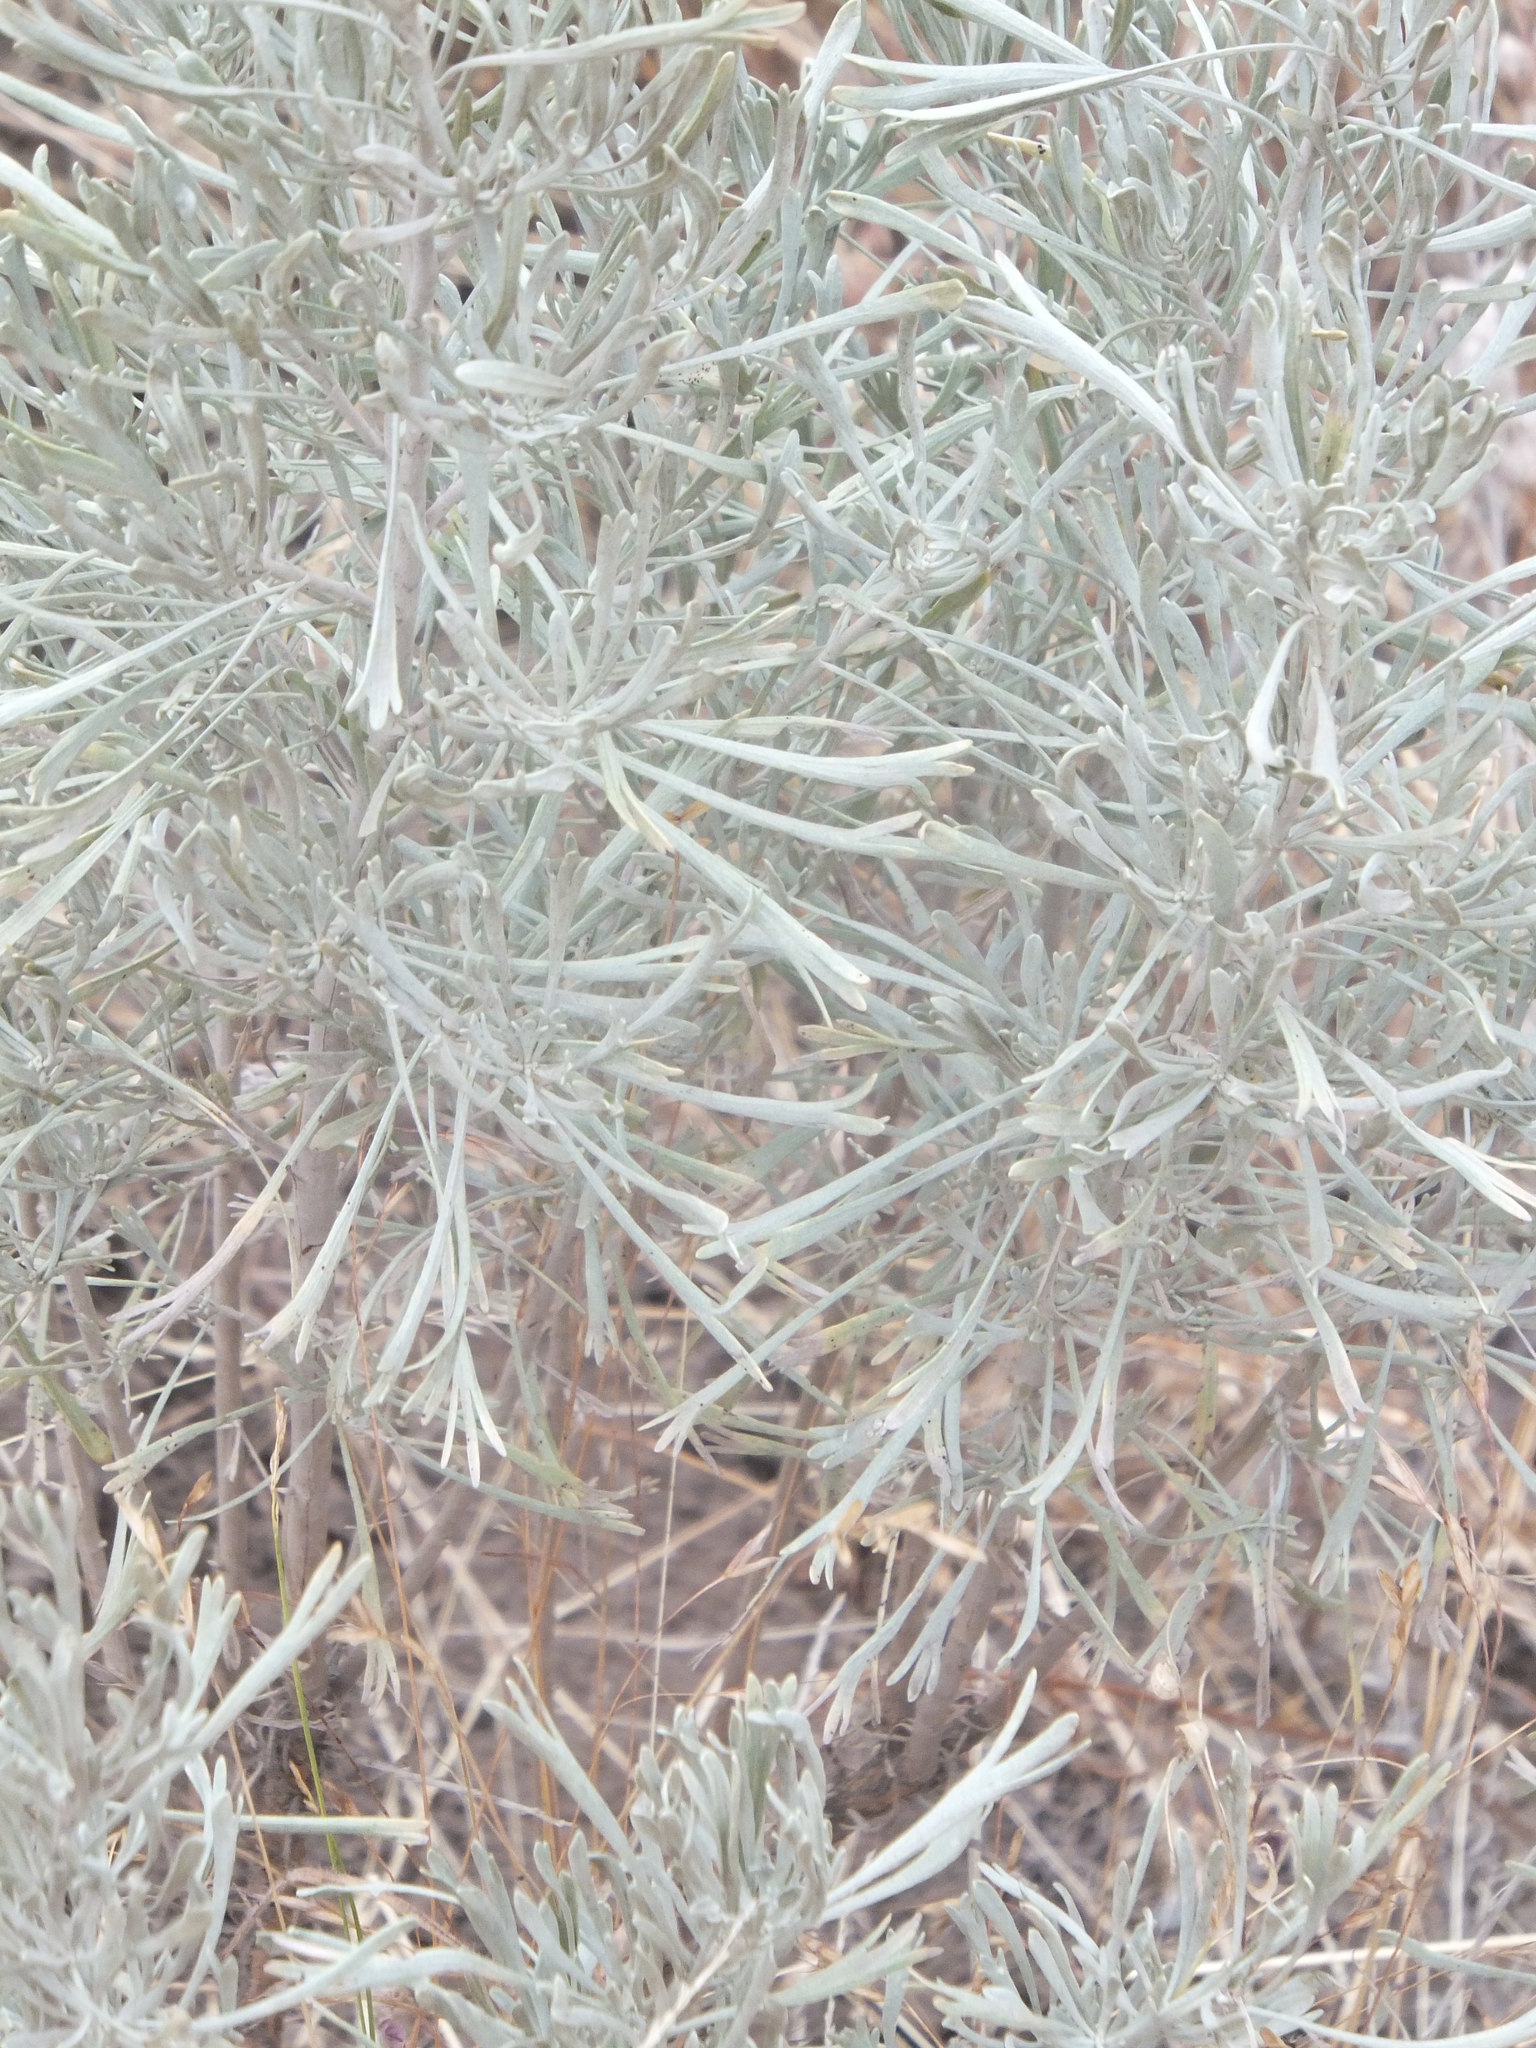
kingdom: Plantae
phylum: Tracheophyta
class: Magnoliopsida
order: Asterales
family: Asteraceae
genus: Artemisia
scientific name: Artemisia tripartita
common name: Three-tip sagebrush
